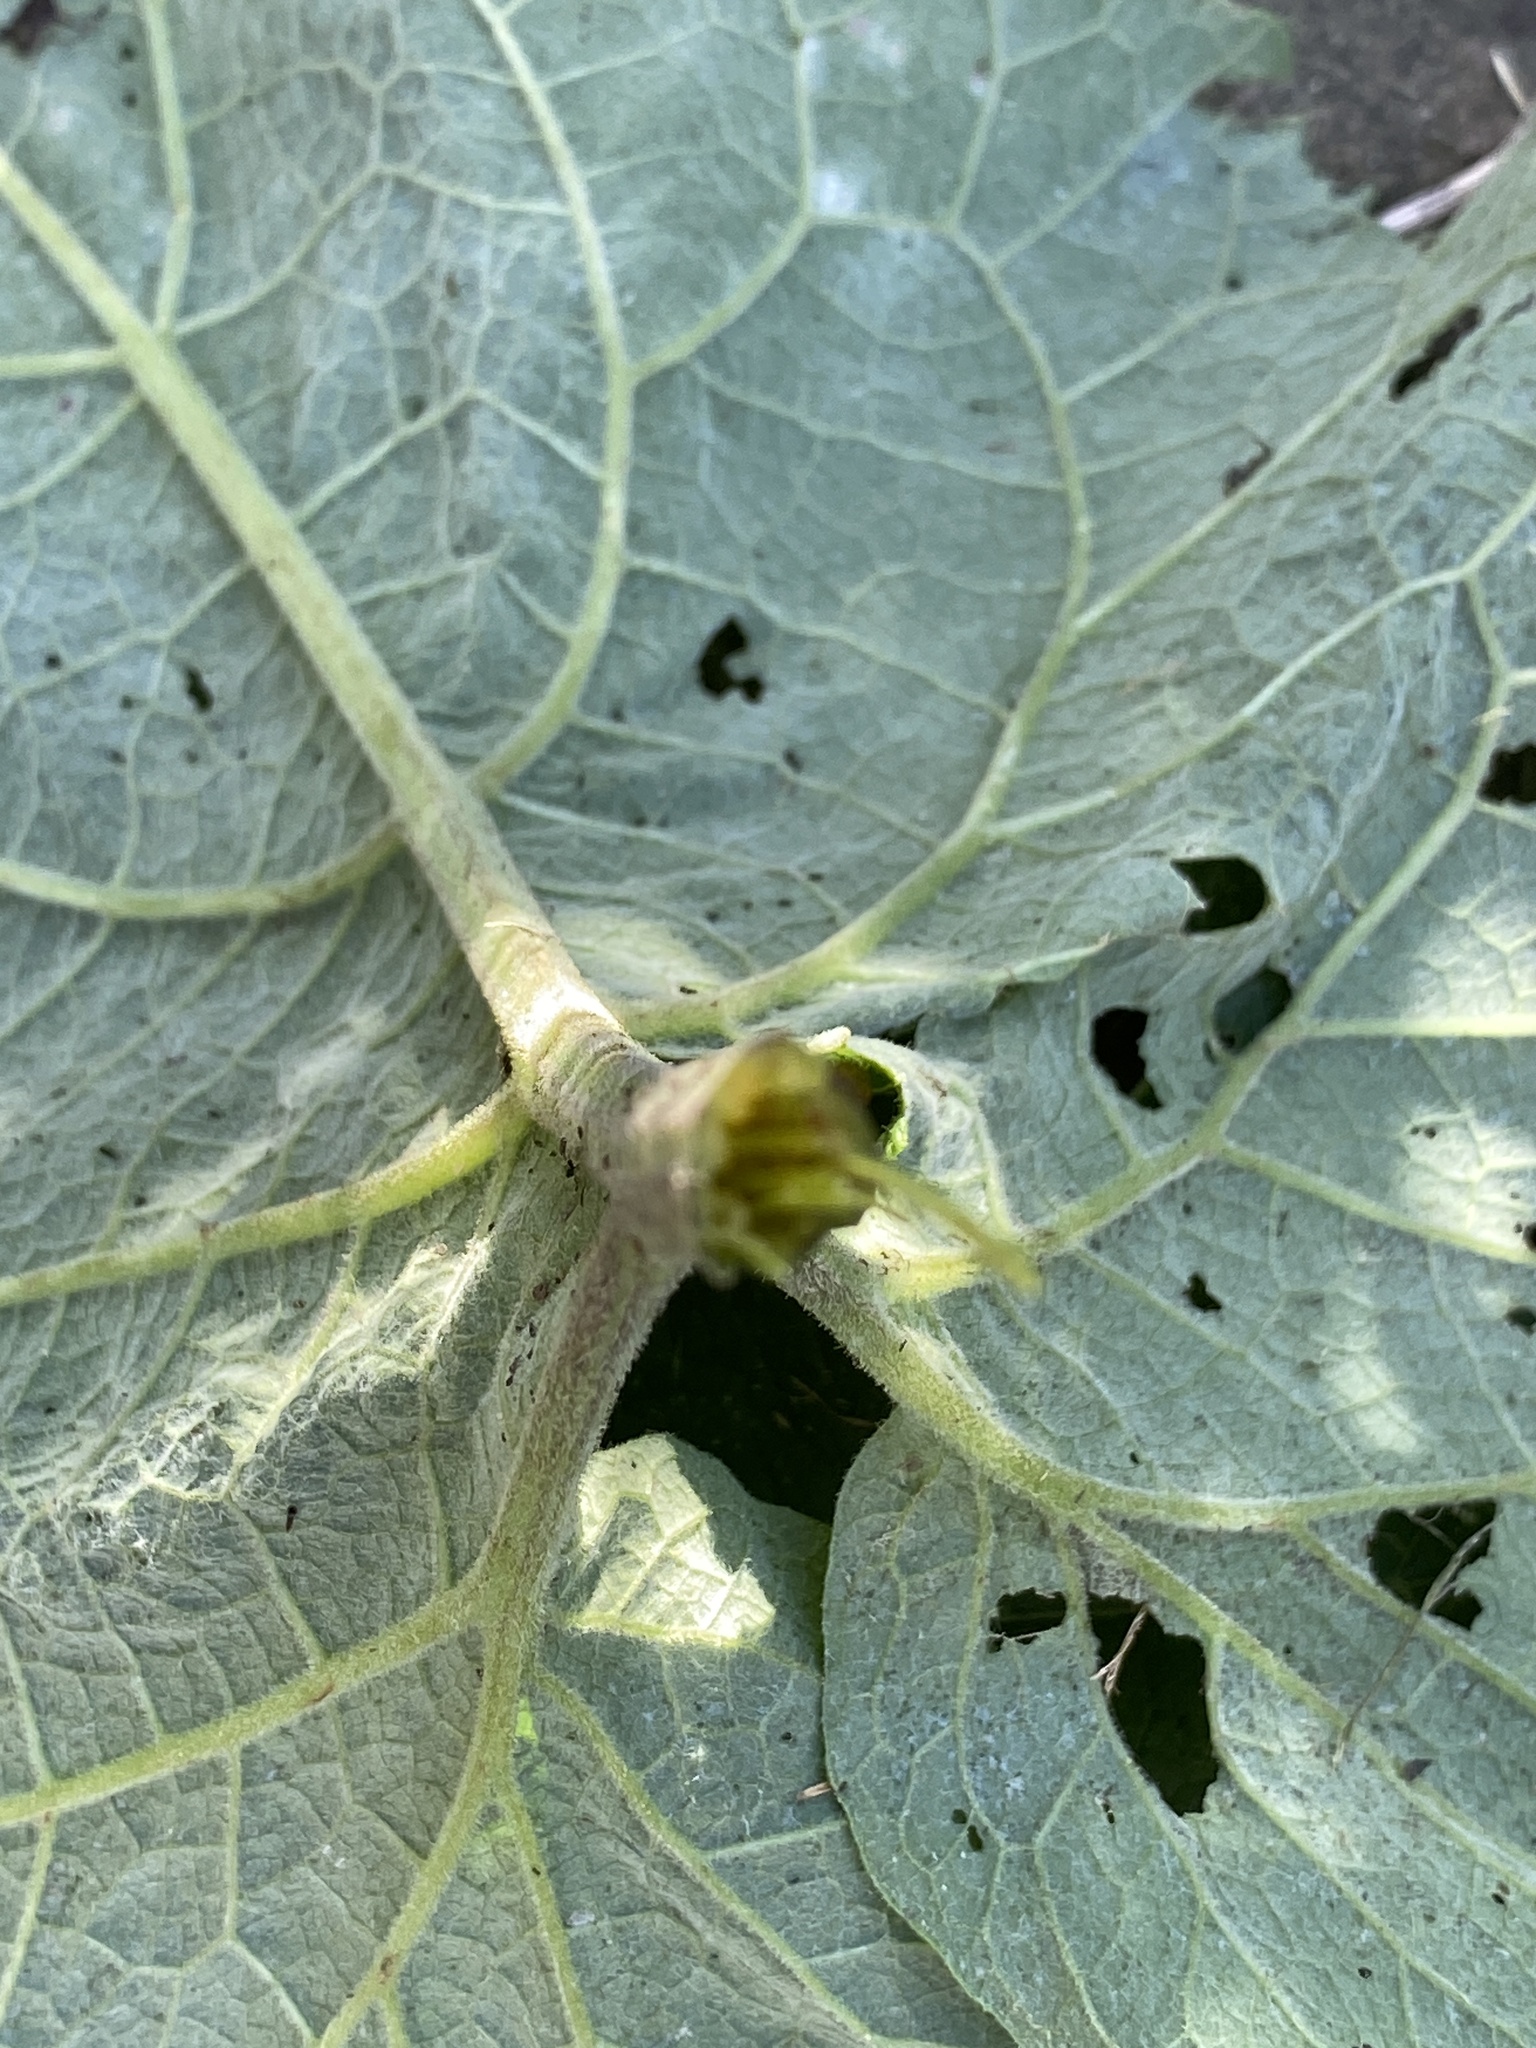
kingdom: Plantae
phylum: Tracheophyta
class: Magnoliopsida
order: Asterales
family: Asteraceae
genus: Arctium
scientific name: Arctium minus
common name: Lesser burdock
